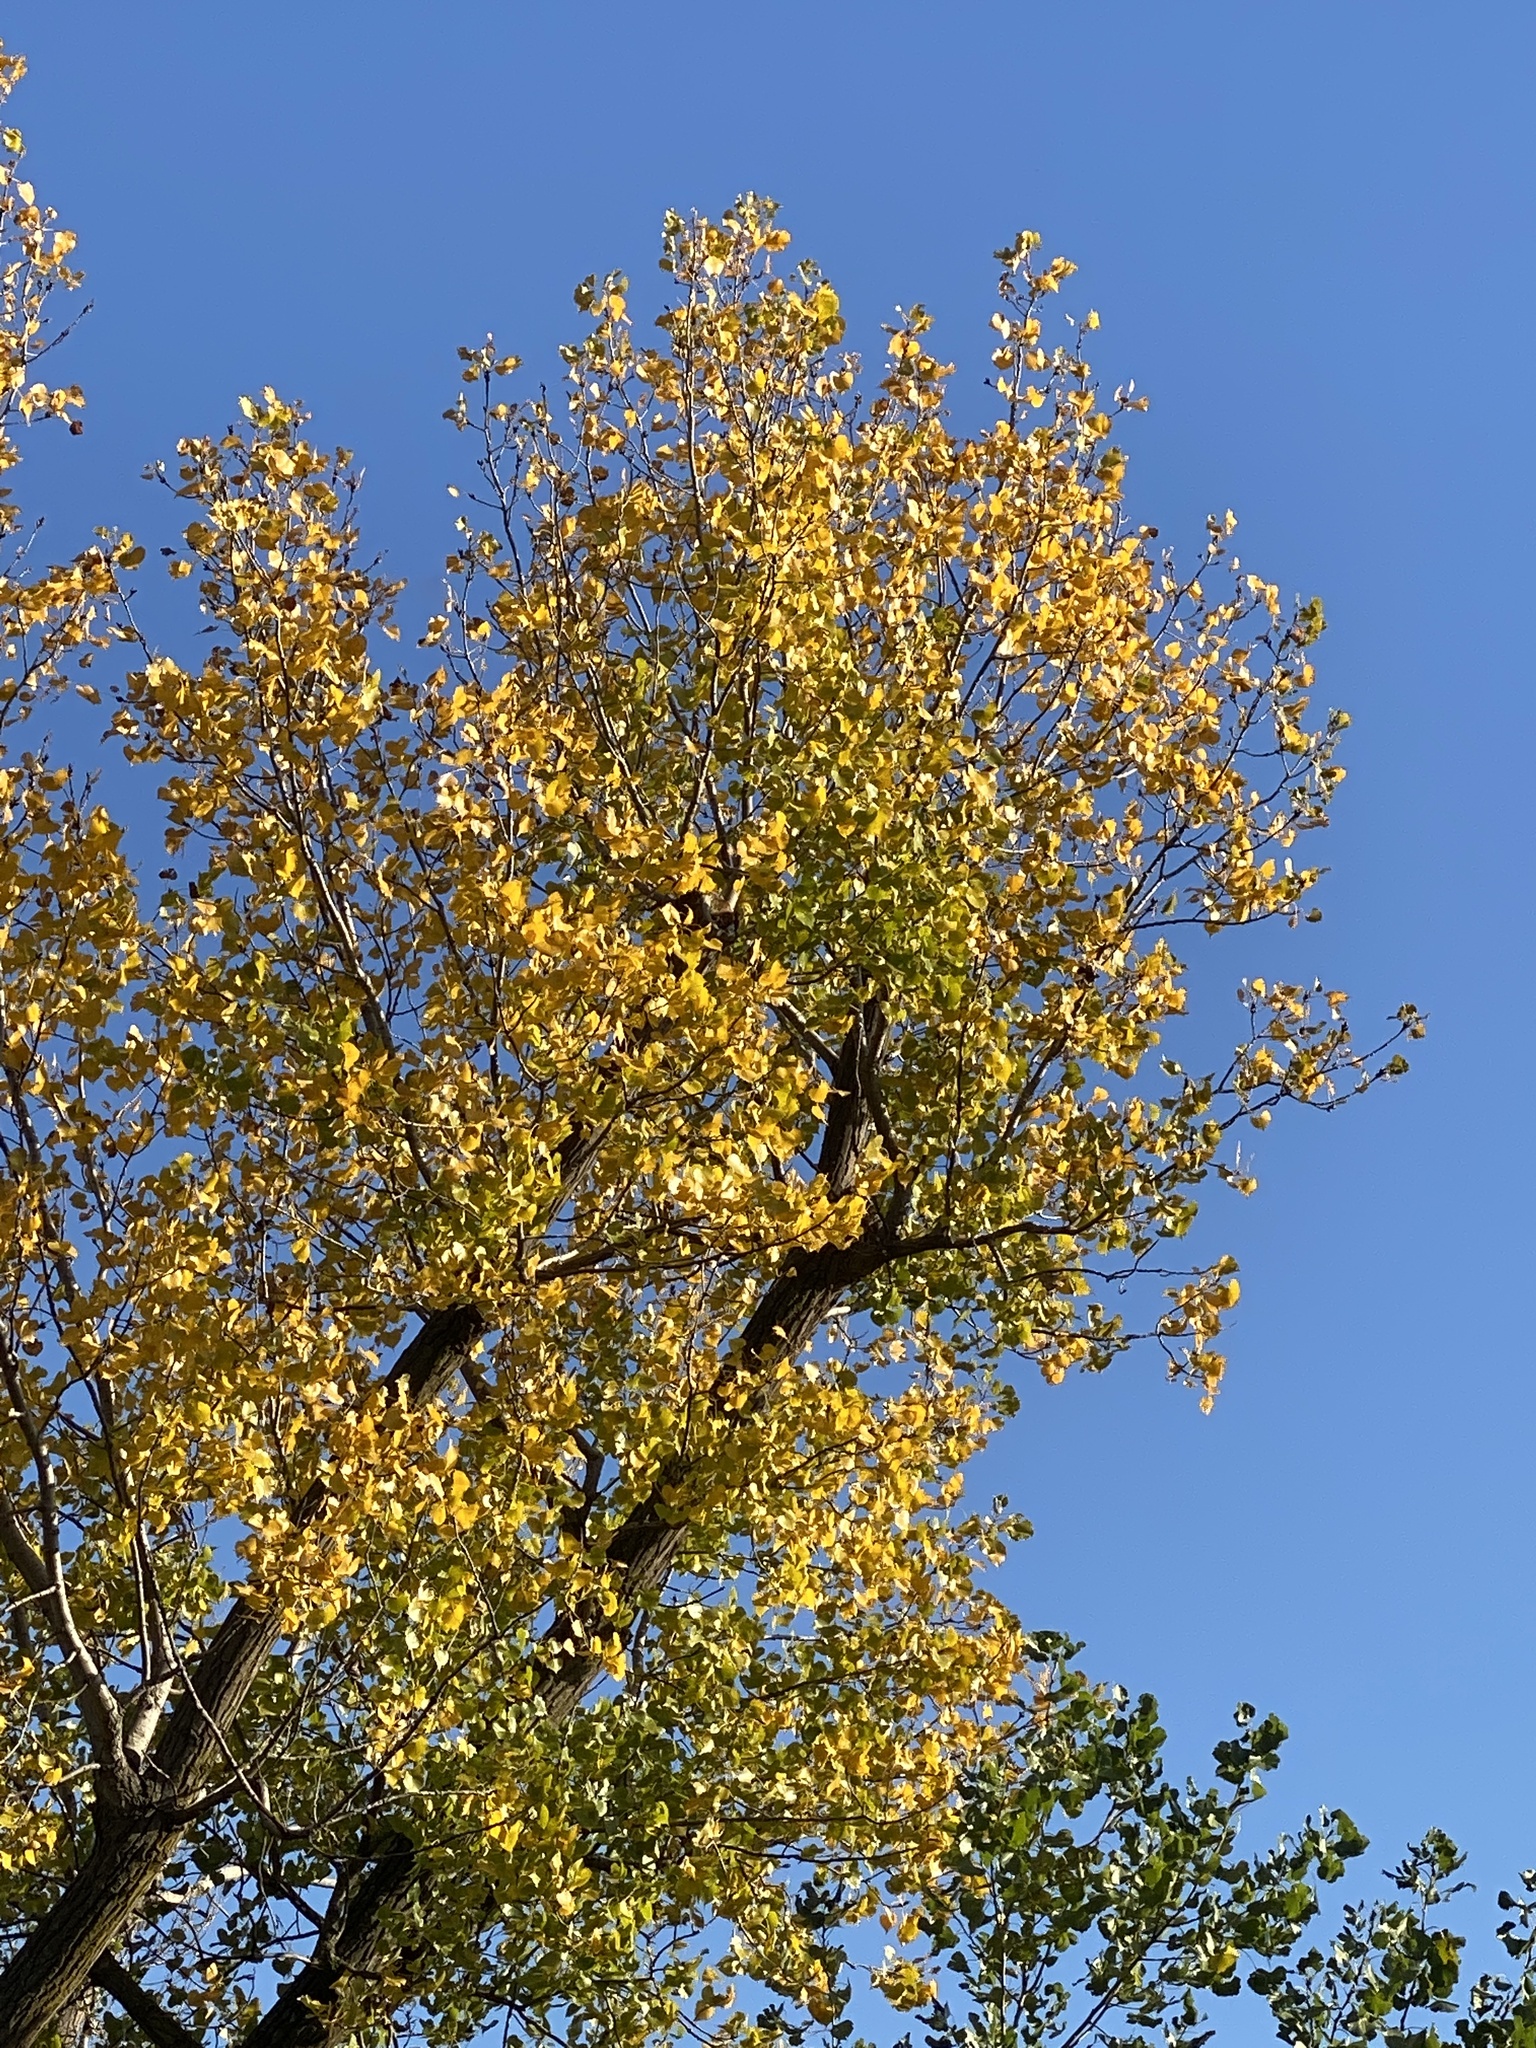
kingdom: Plantae
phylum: Tracheophyta
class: Magnoliopsida
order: Malpighiales
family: Salicaceae
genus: Populus
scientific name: Populus deltoides
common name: Eastern cottonwood
